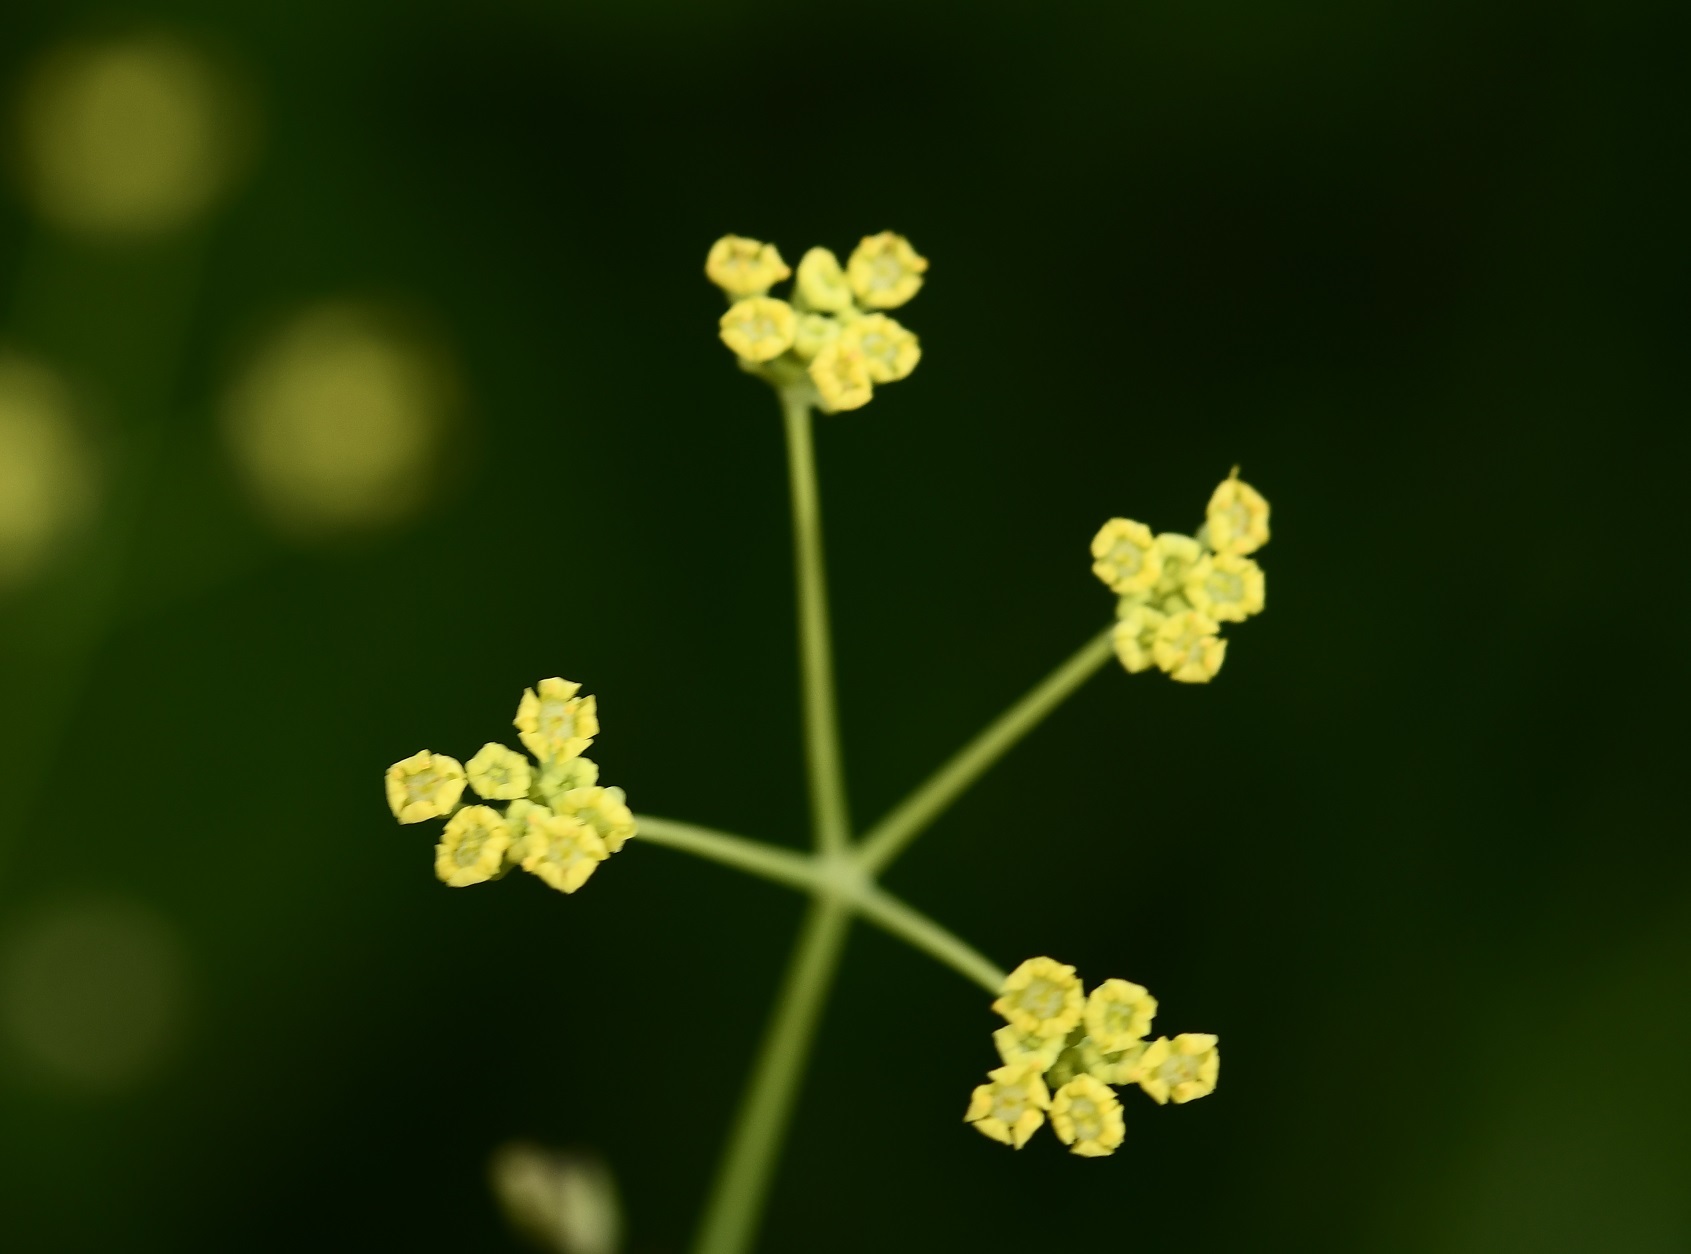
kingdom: Plantae
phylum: Tracheophyta
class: Magnoliopsida
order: Apiales
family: Apiaceae
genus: Donnellsmithia
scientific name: Donnellsmithia juncea
